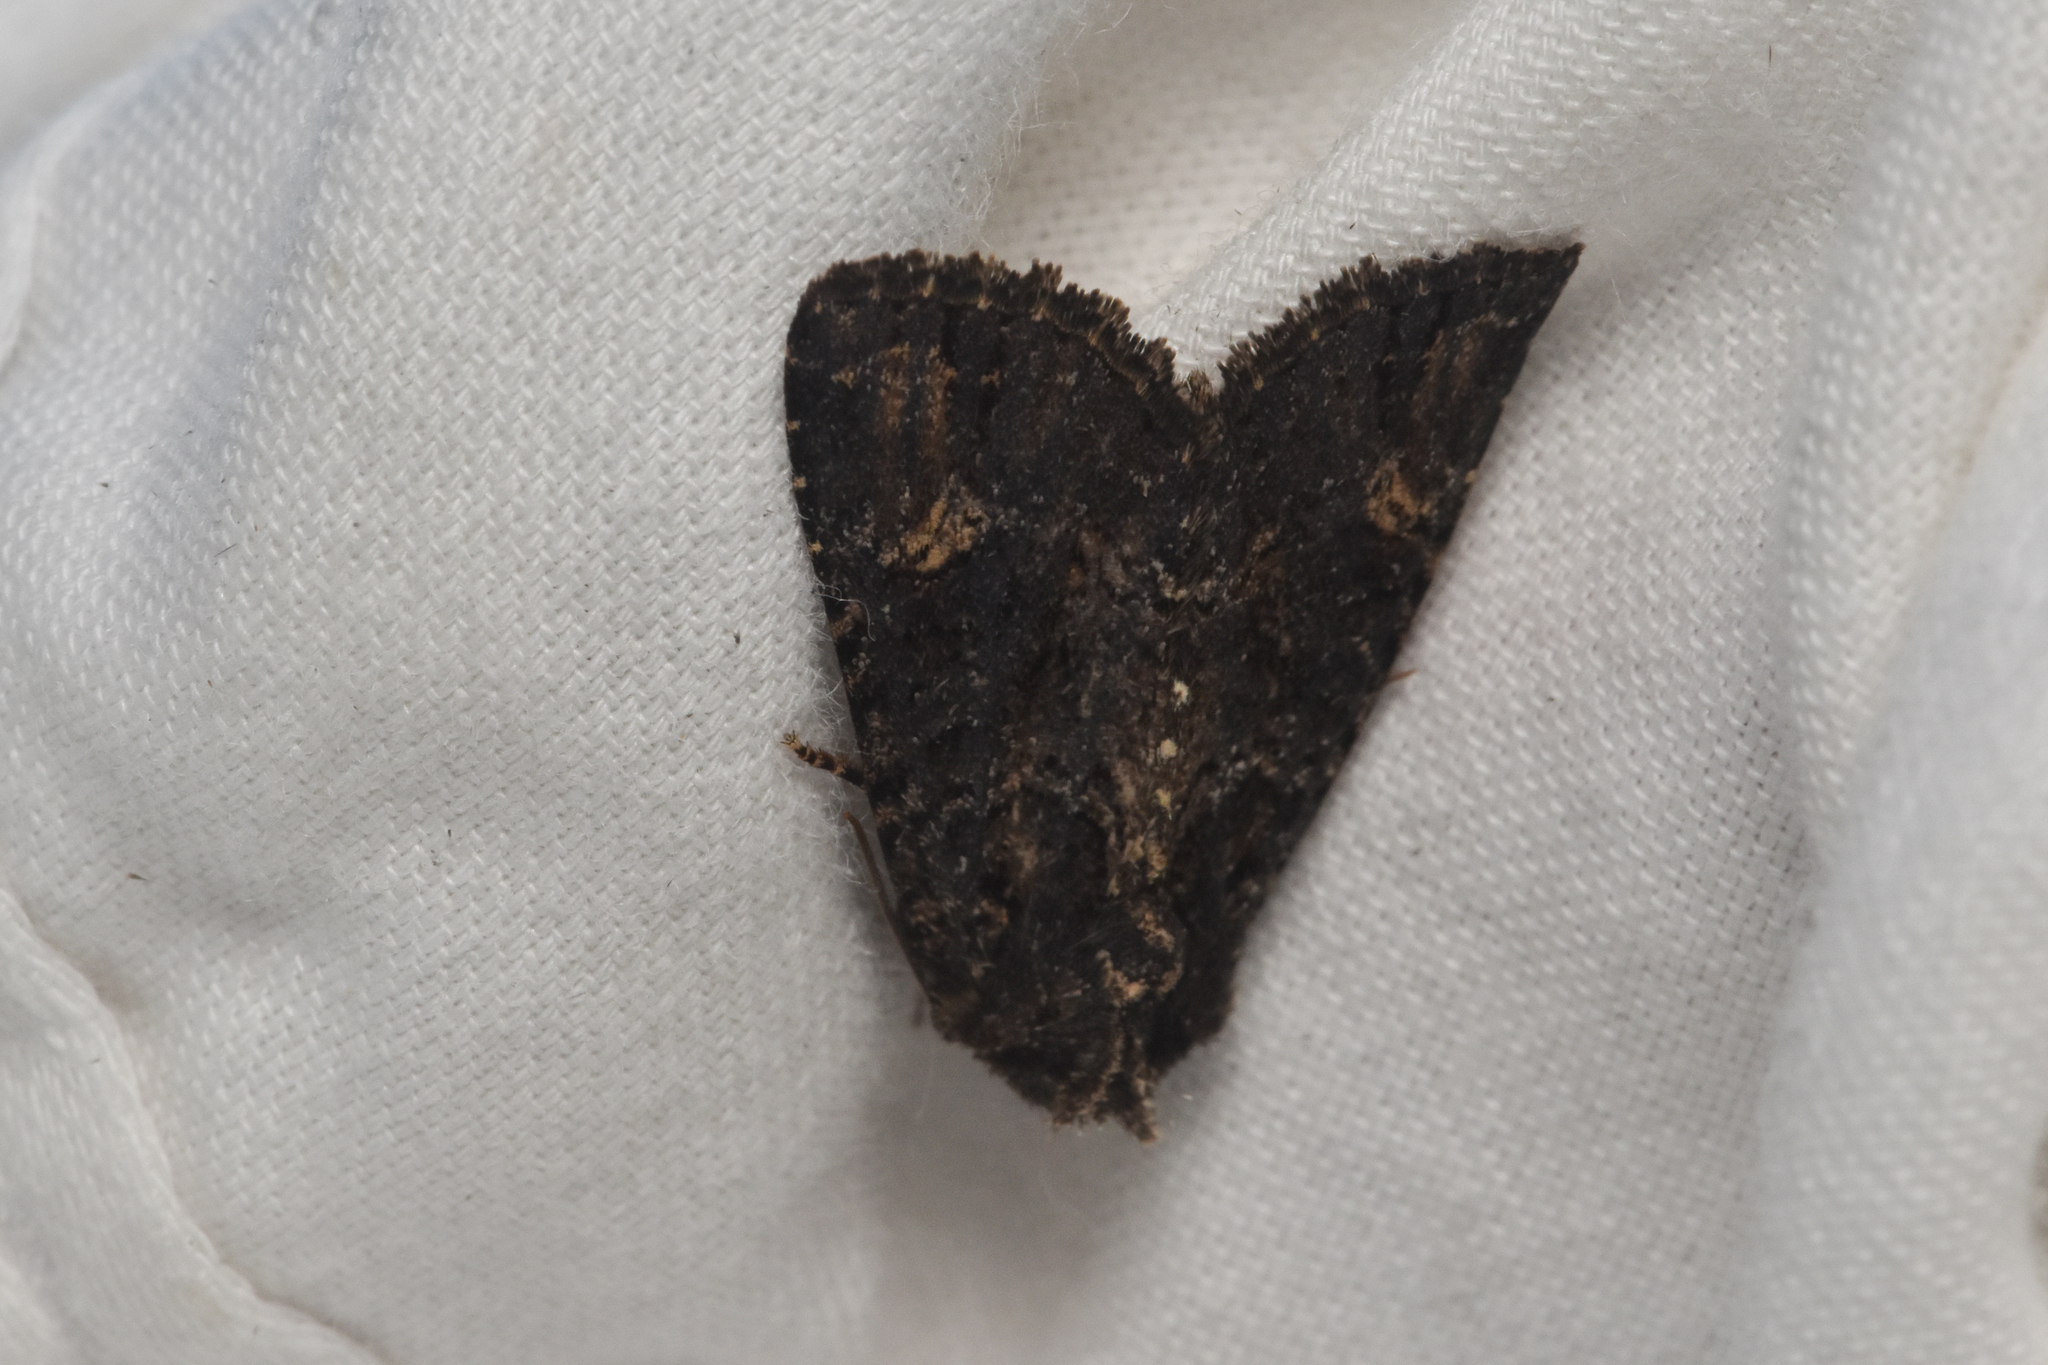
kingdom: Animalia
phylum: Arthropoda
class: Insecta
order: Lepidoptera
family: Noctuidae
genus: Aseptis
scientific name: Aseptis binotata
